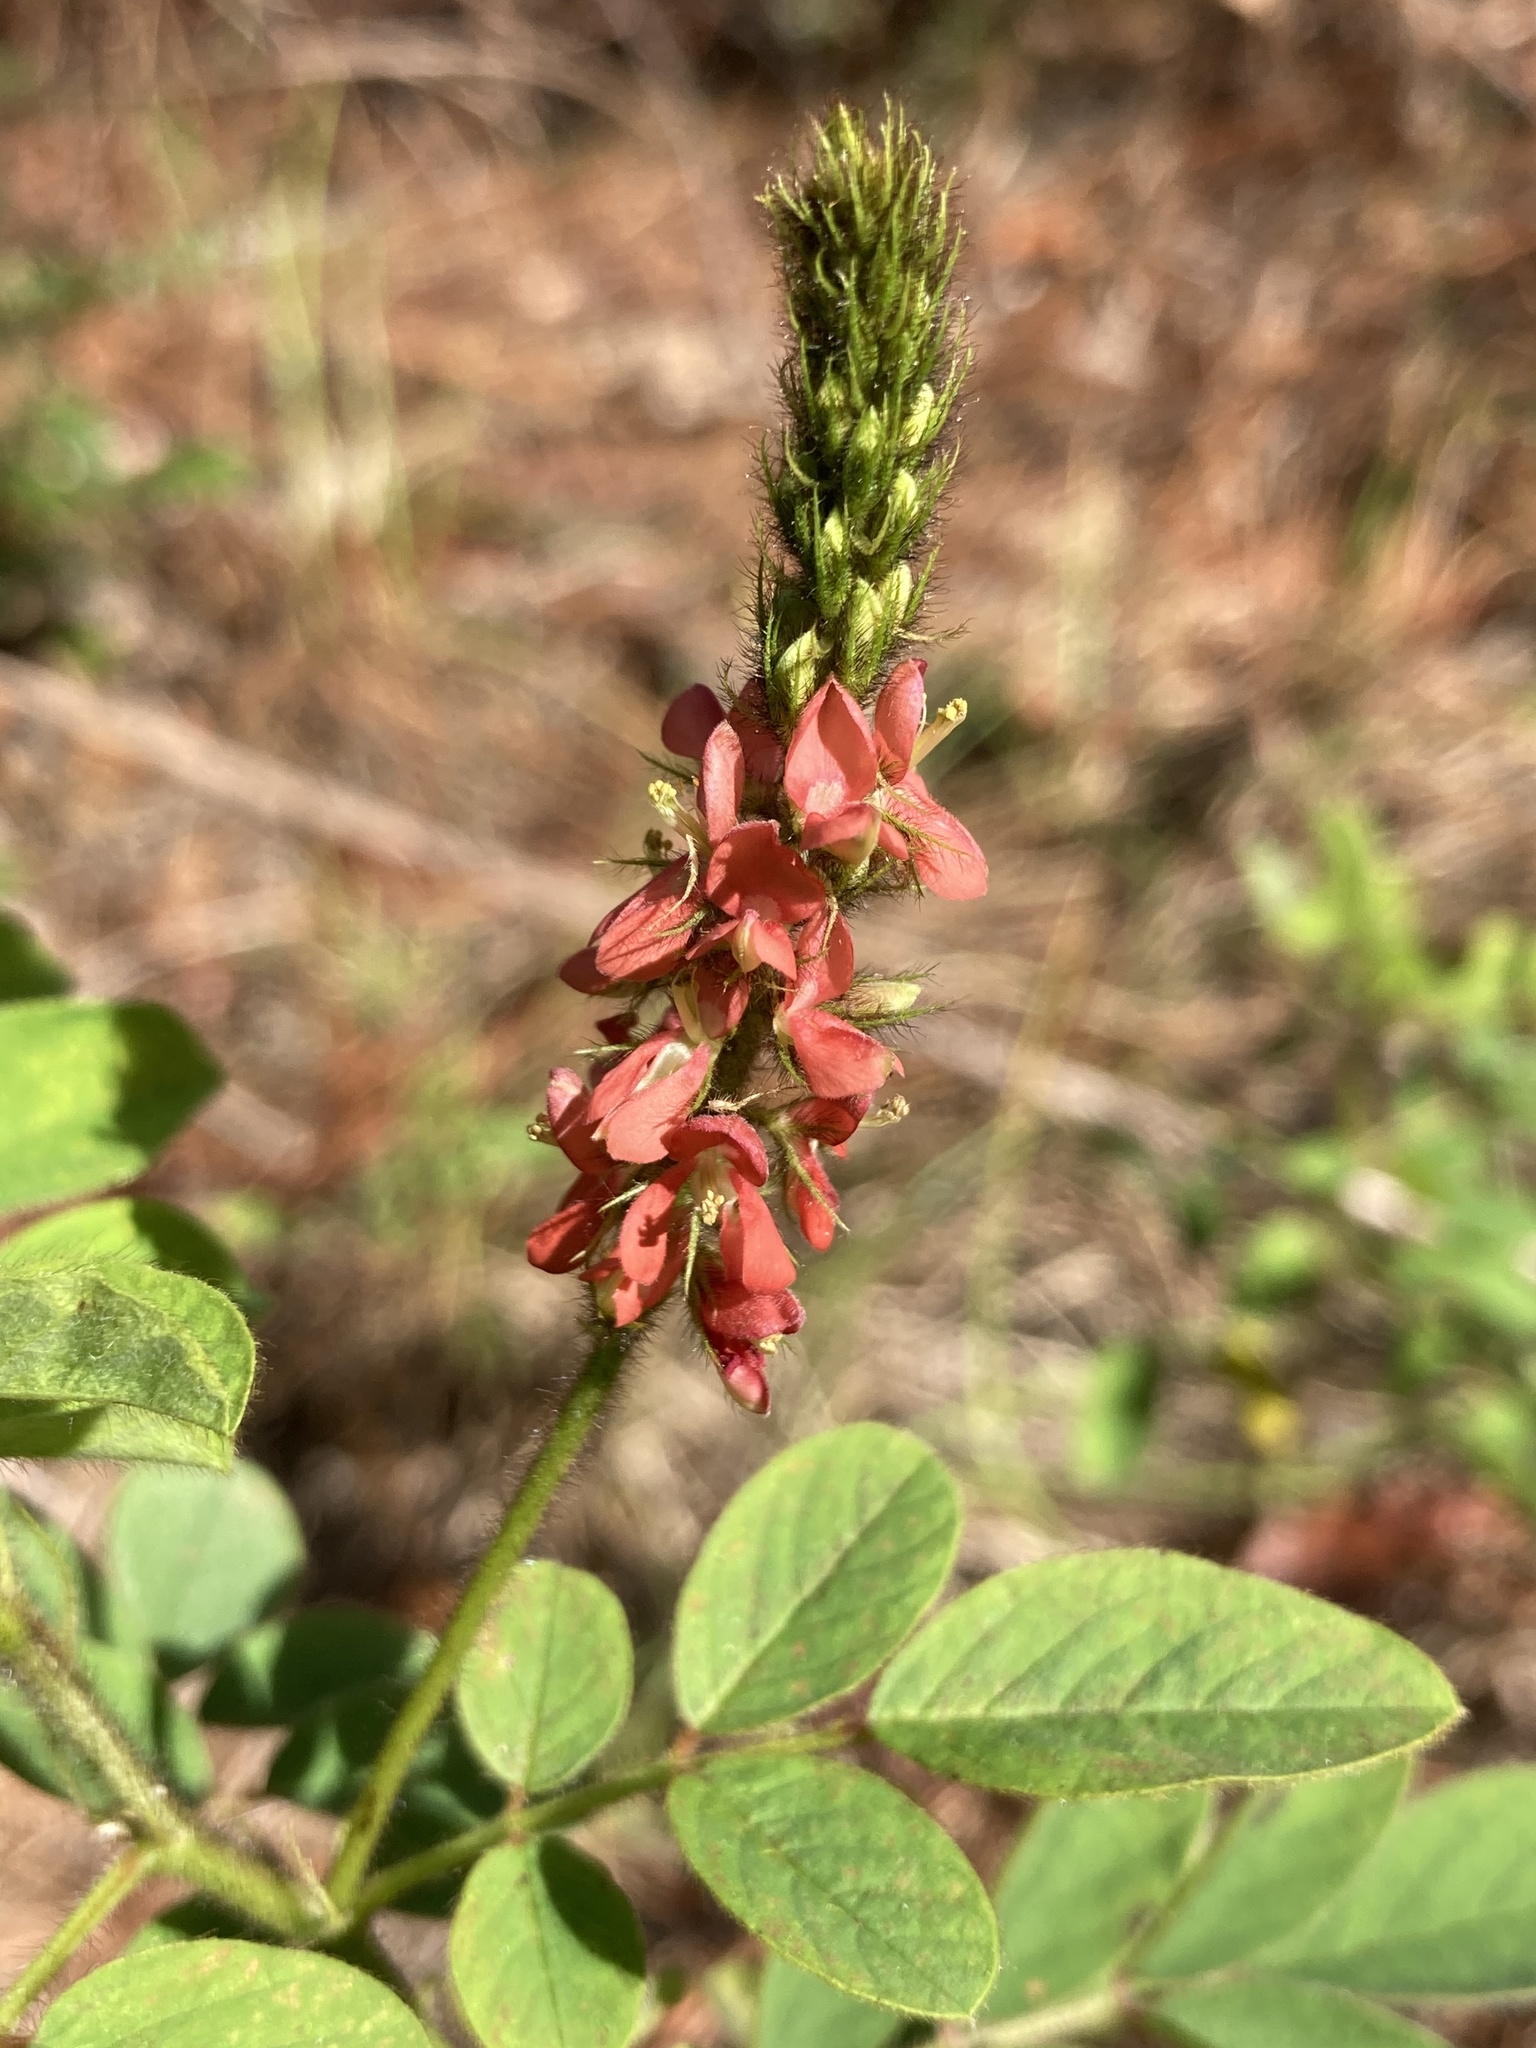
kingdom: Plantae
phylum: Tracheophyta
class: Magnoliopsida
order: Fabales
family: Fabaceae
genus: Indigofera
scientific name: Indigofera hirsuta
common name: Hairy indigo
